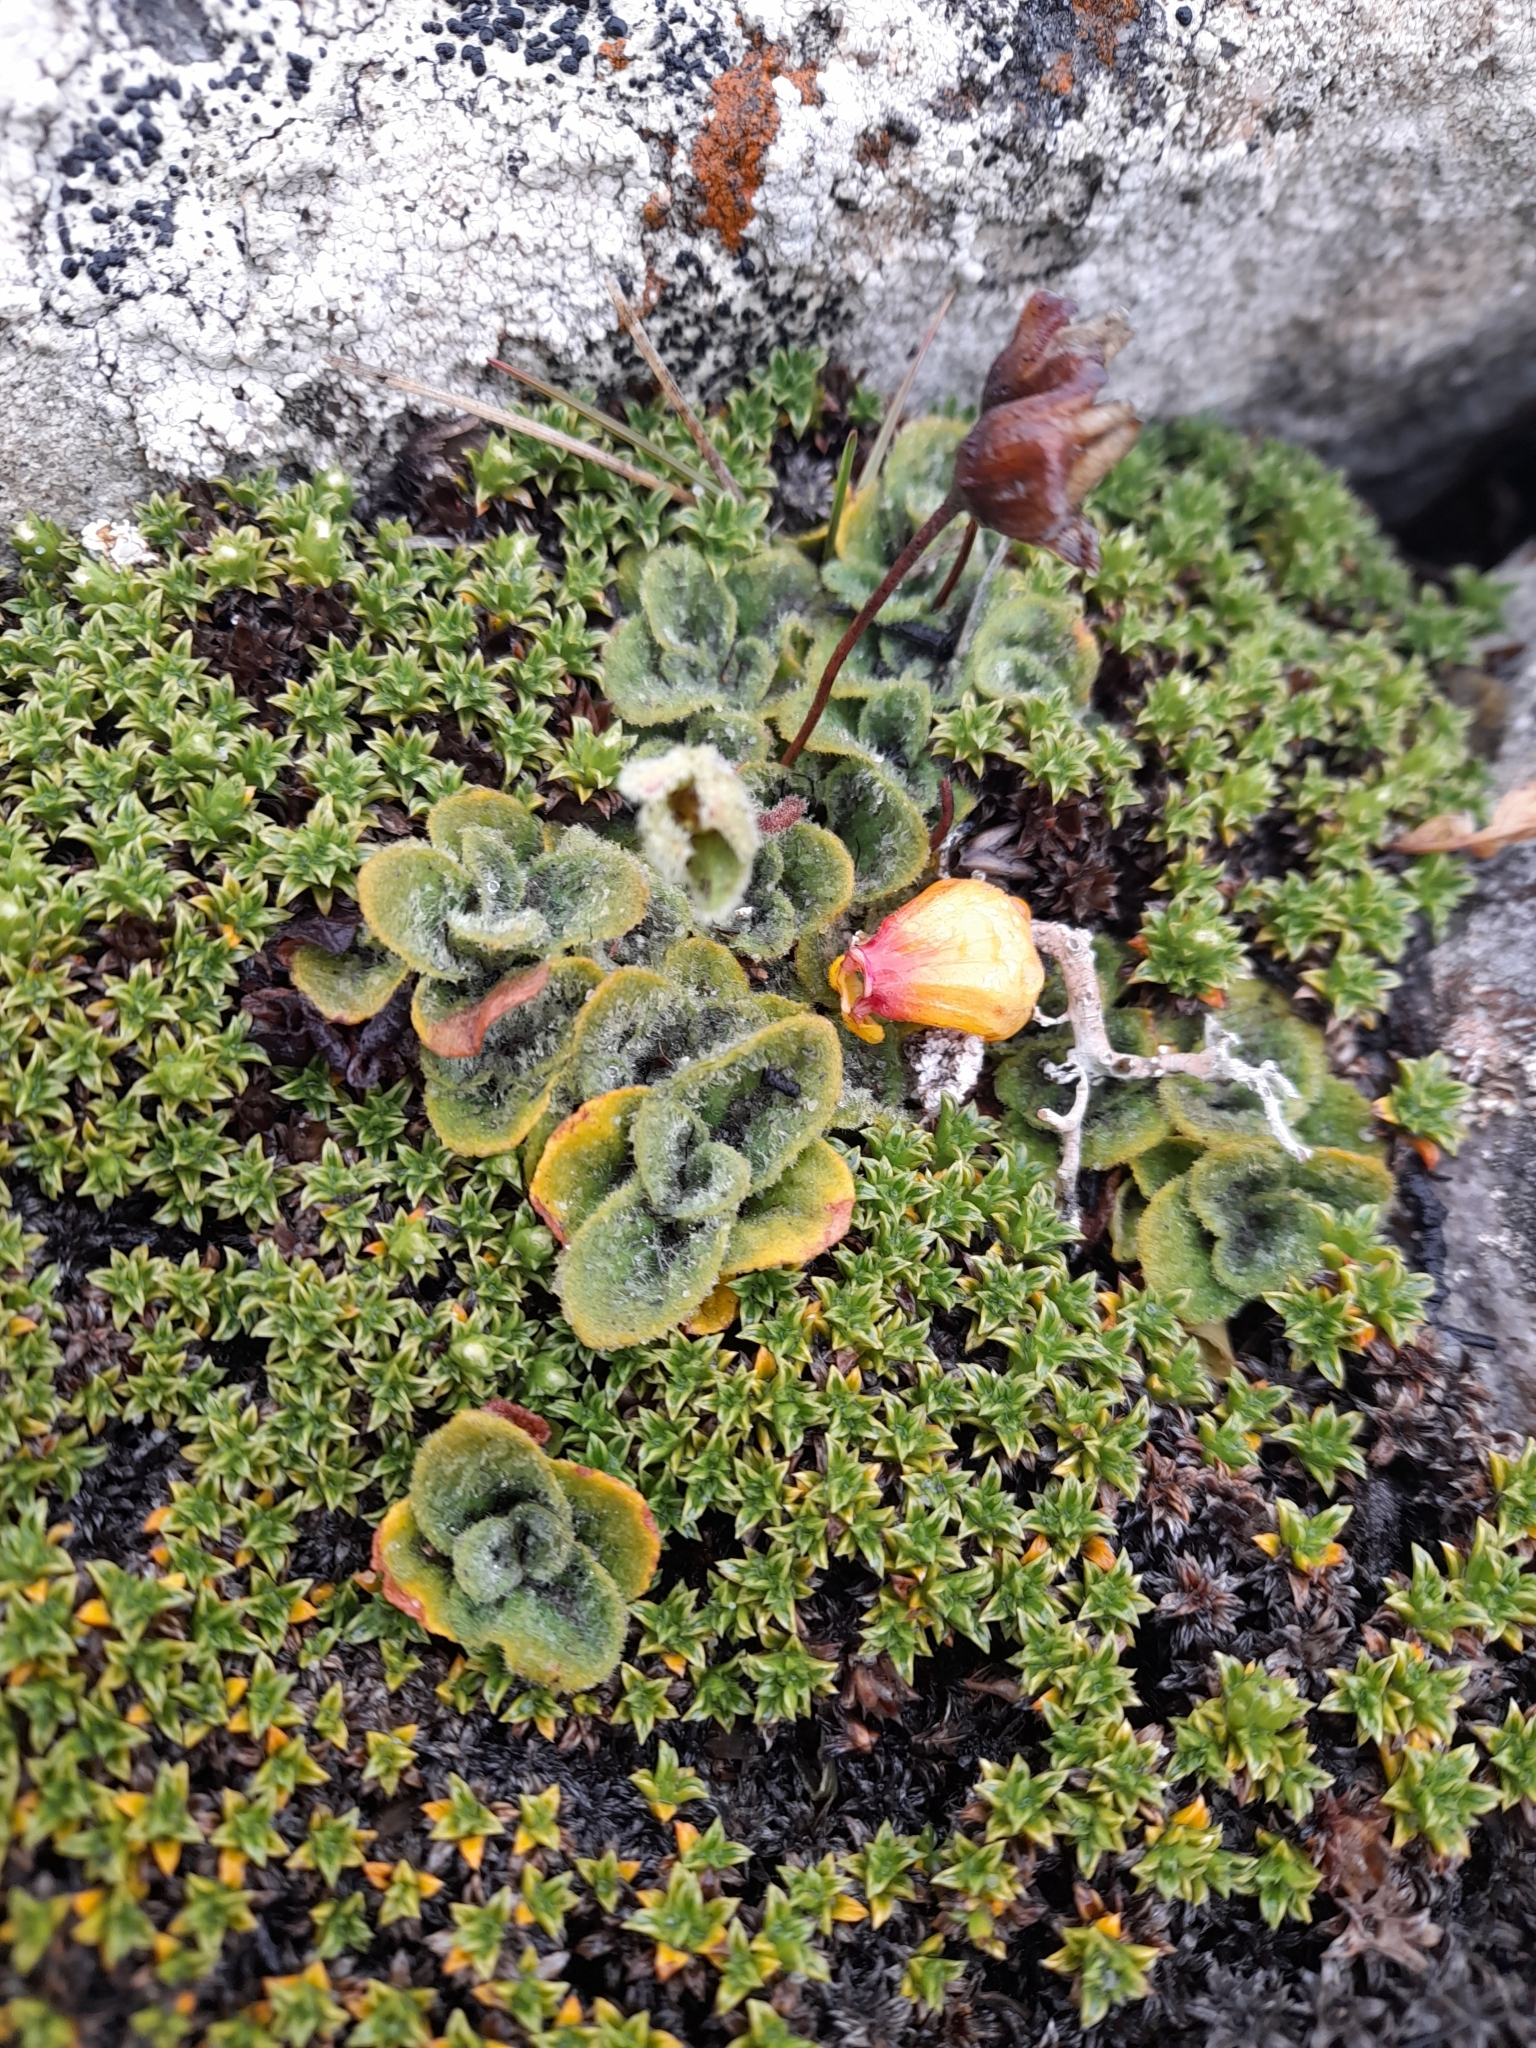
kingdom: Plantae
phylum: Tracheophyta
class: Magnoliopsida
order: Lamiales
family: Calceolariaceae
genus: Calceolaria
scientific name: Calceolaria fothergillii
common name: Lady's slipper
